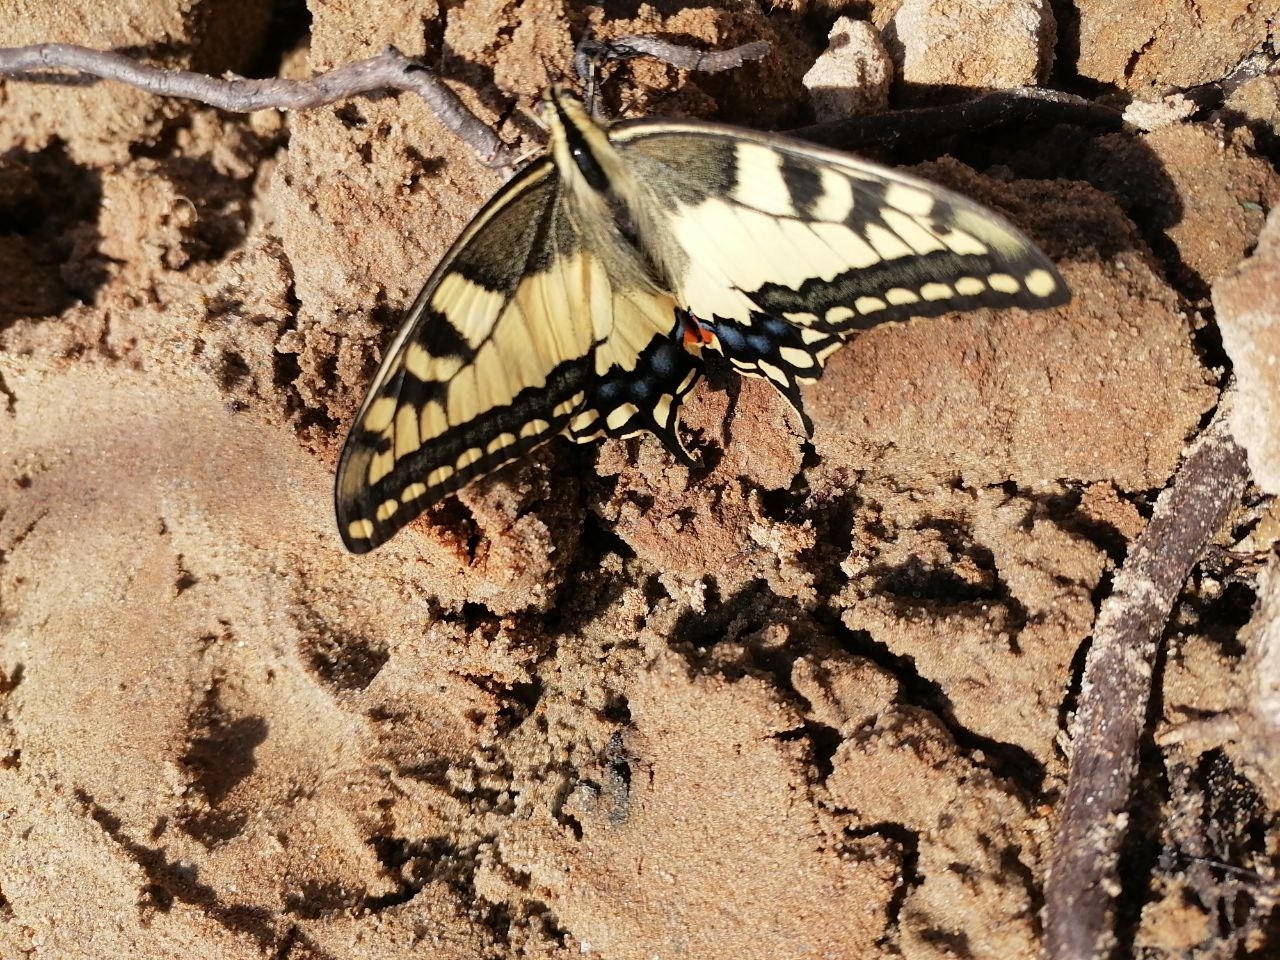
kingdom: Animalia
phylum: Arthropoda
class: Insecta
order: Lepidoptera
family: Papilionidae
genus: Papilio
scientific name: Papilio machaon
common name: Swallowtail
